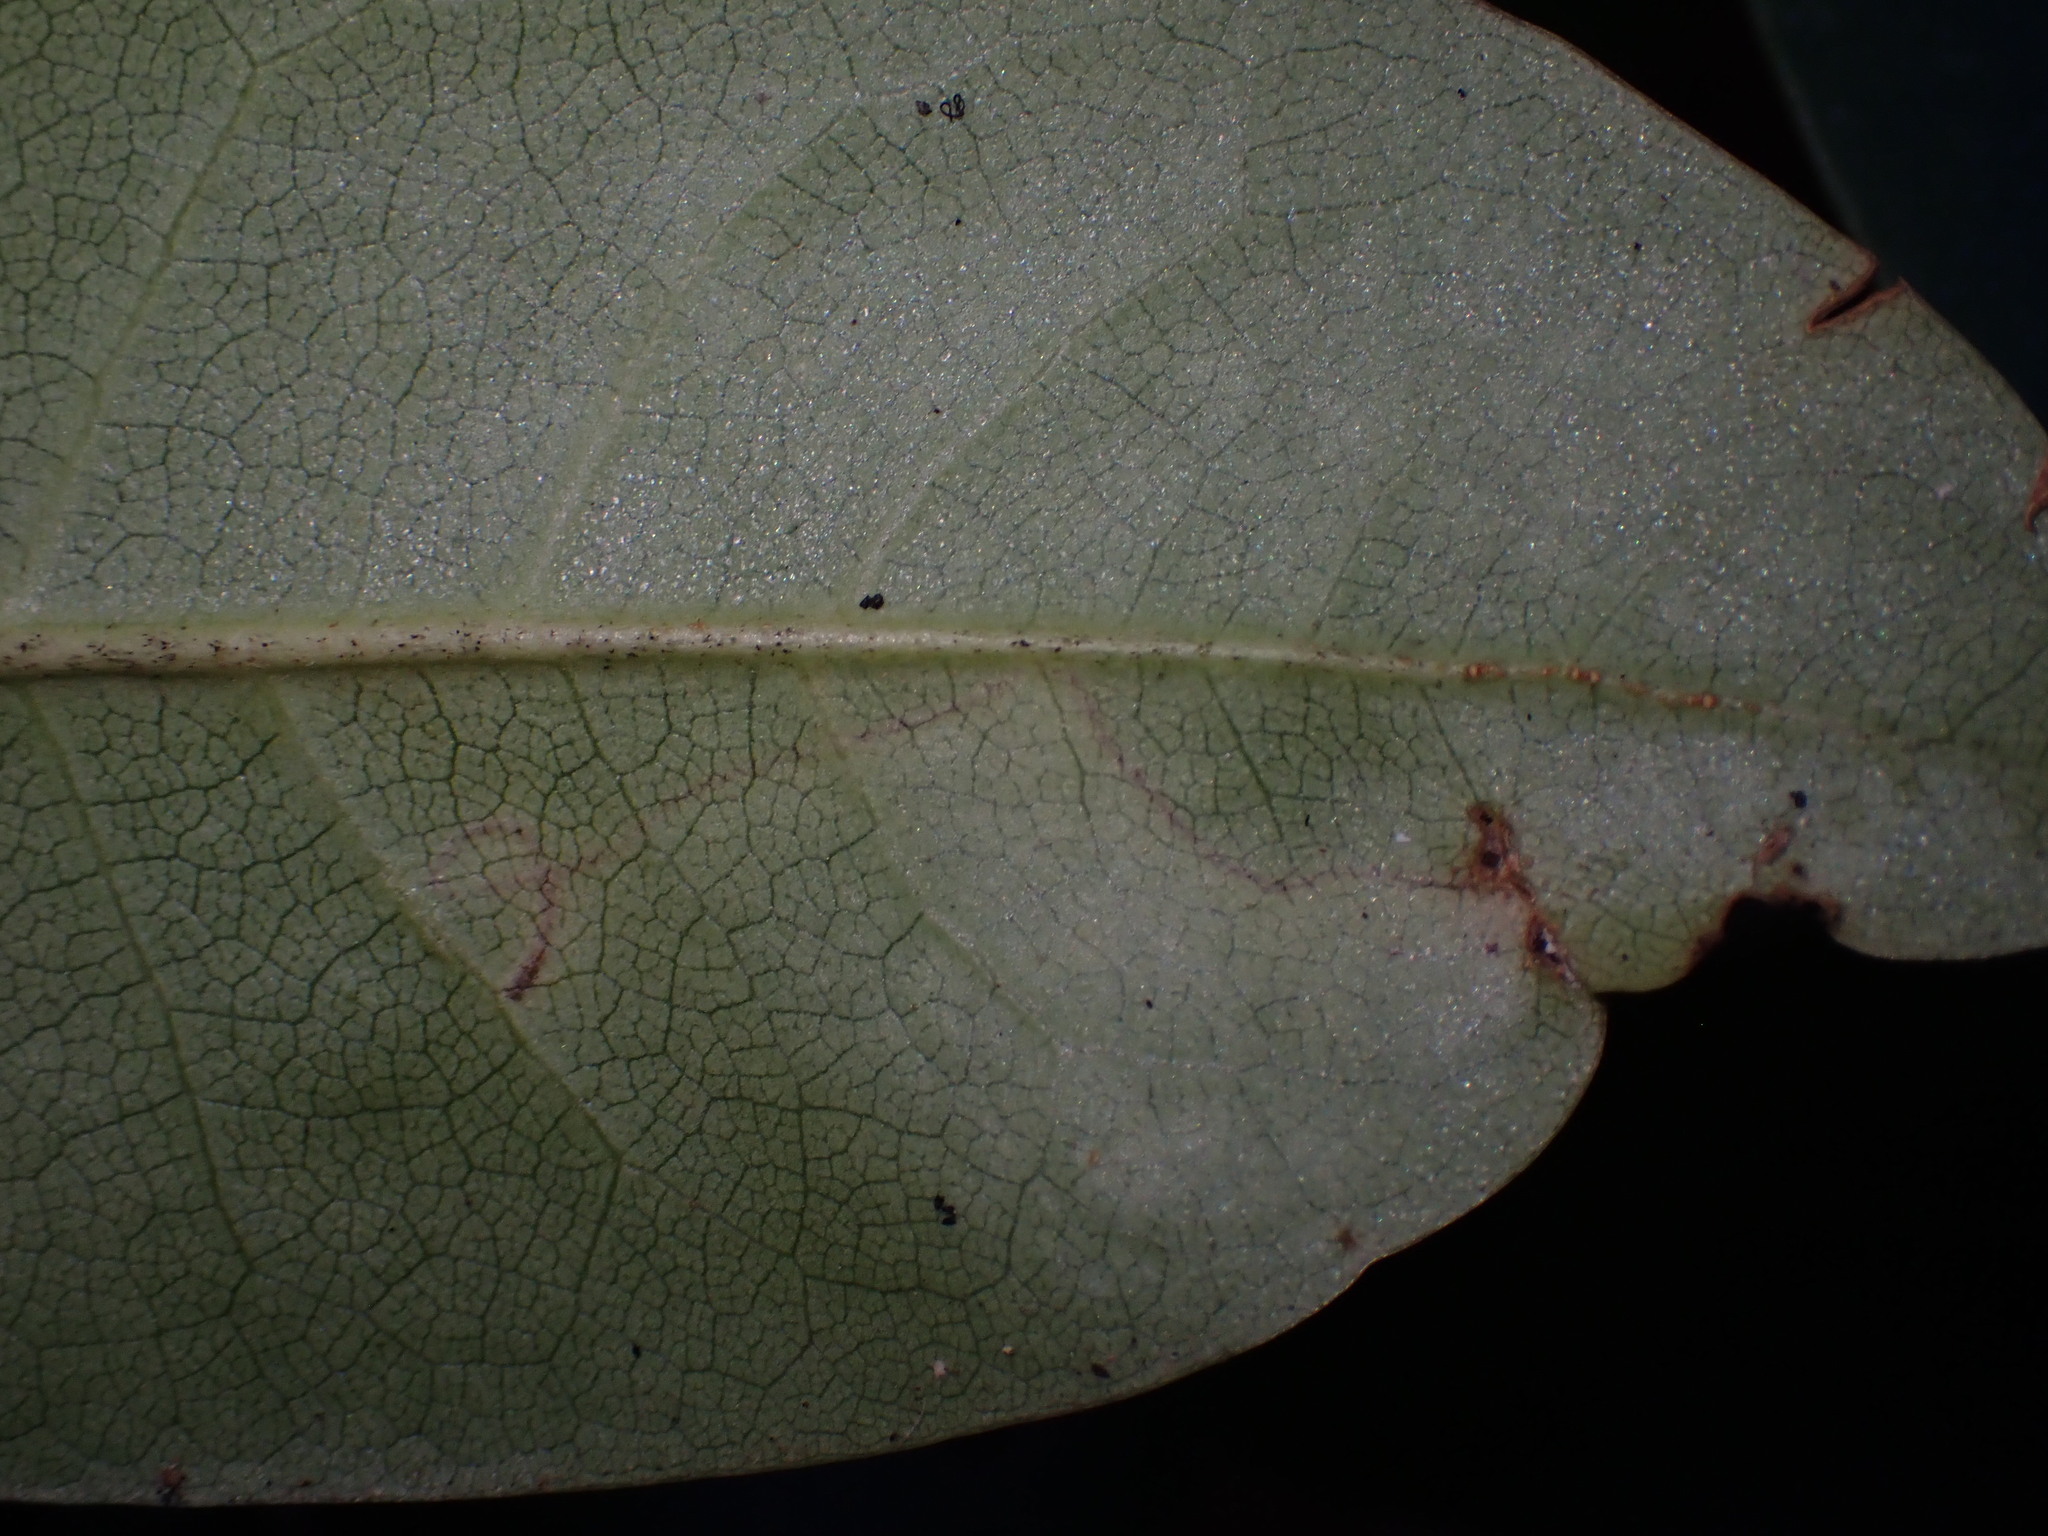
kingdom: Animalia
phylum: Arthropoda
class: Insecta
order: Lepidoptera
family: Lyonetiidae
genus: Lyonetia
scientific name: Lyonetia
